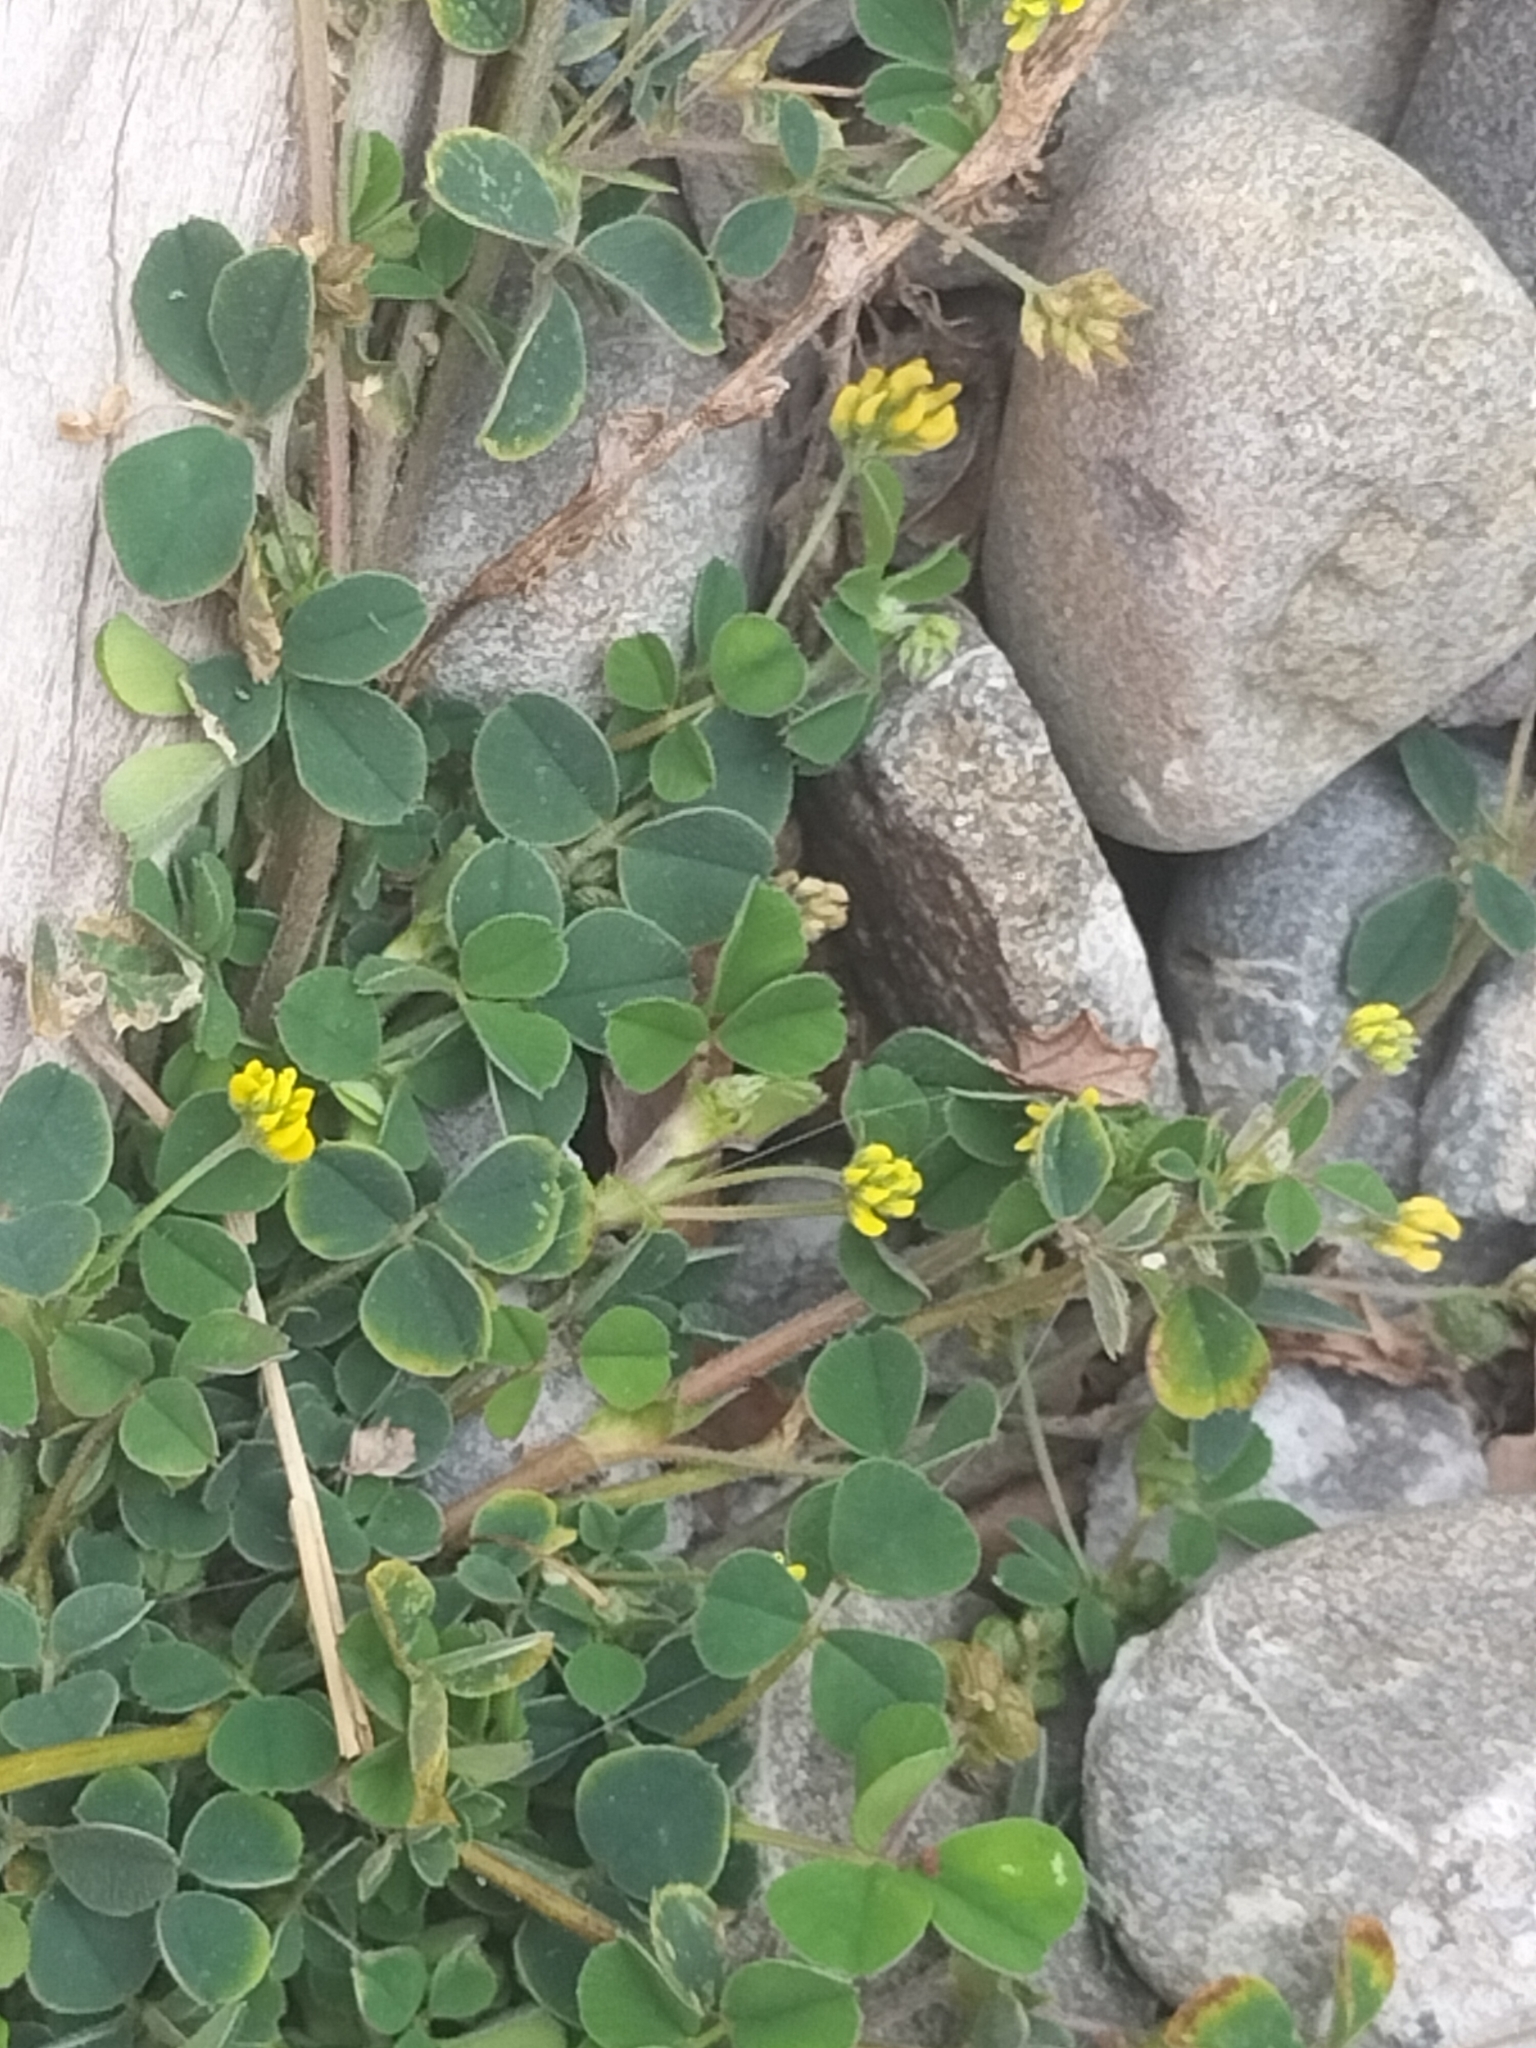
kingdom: Plantae
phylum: Tracheophyta
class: Magnoliopsida
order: Fabales
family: Fabaceae
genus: Medicago
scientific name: Medicago lupulina
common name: Black medick
